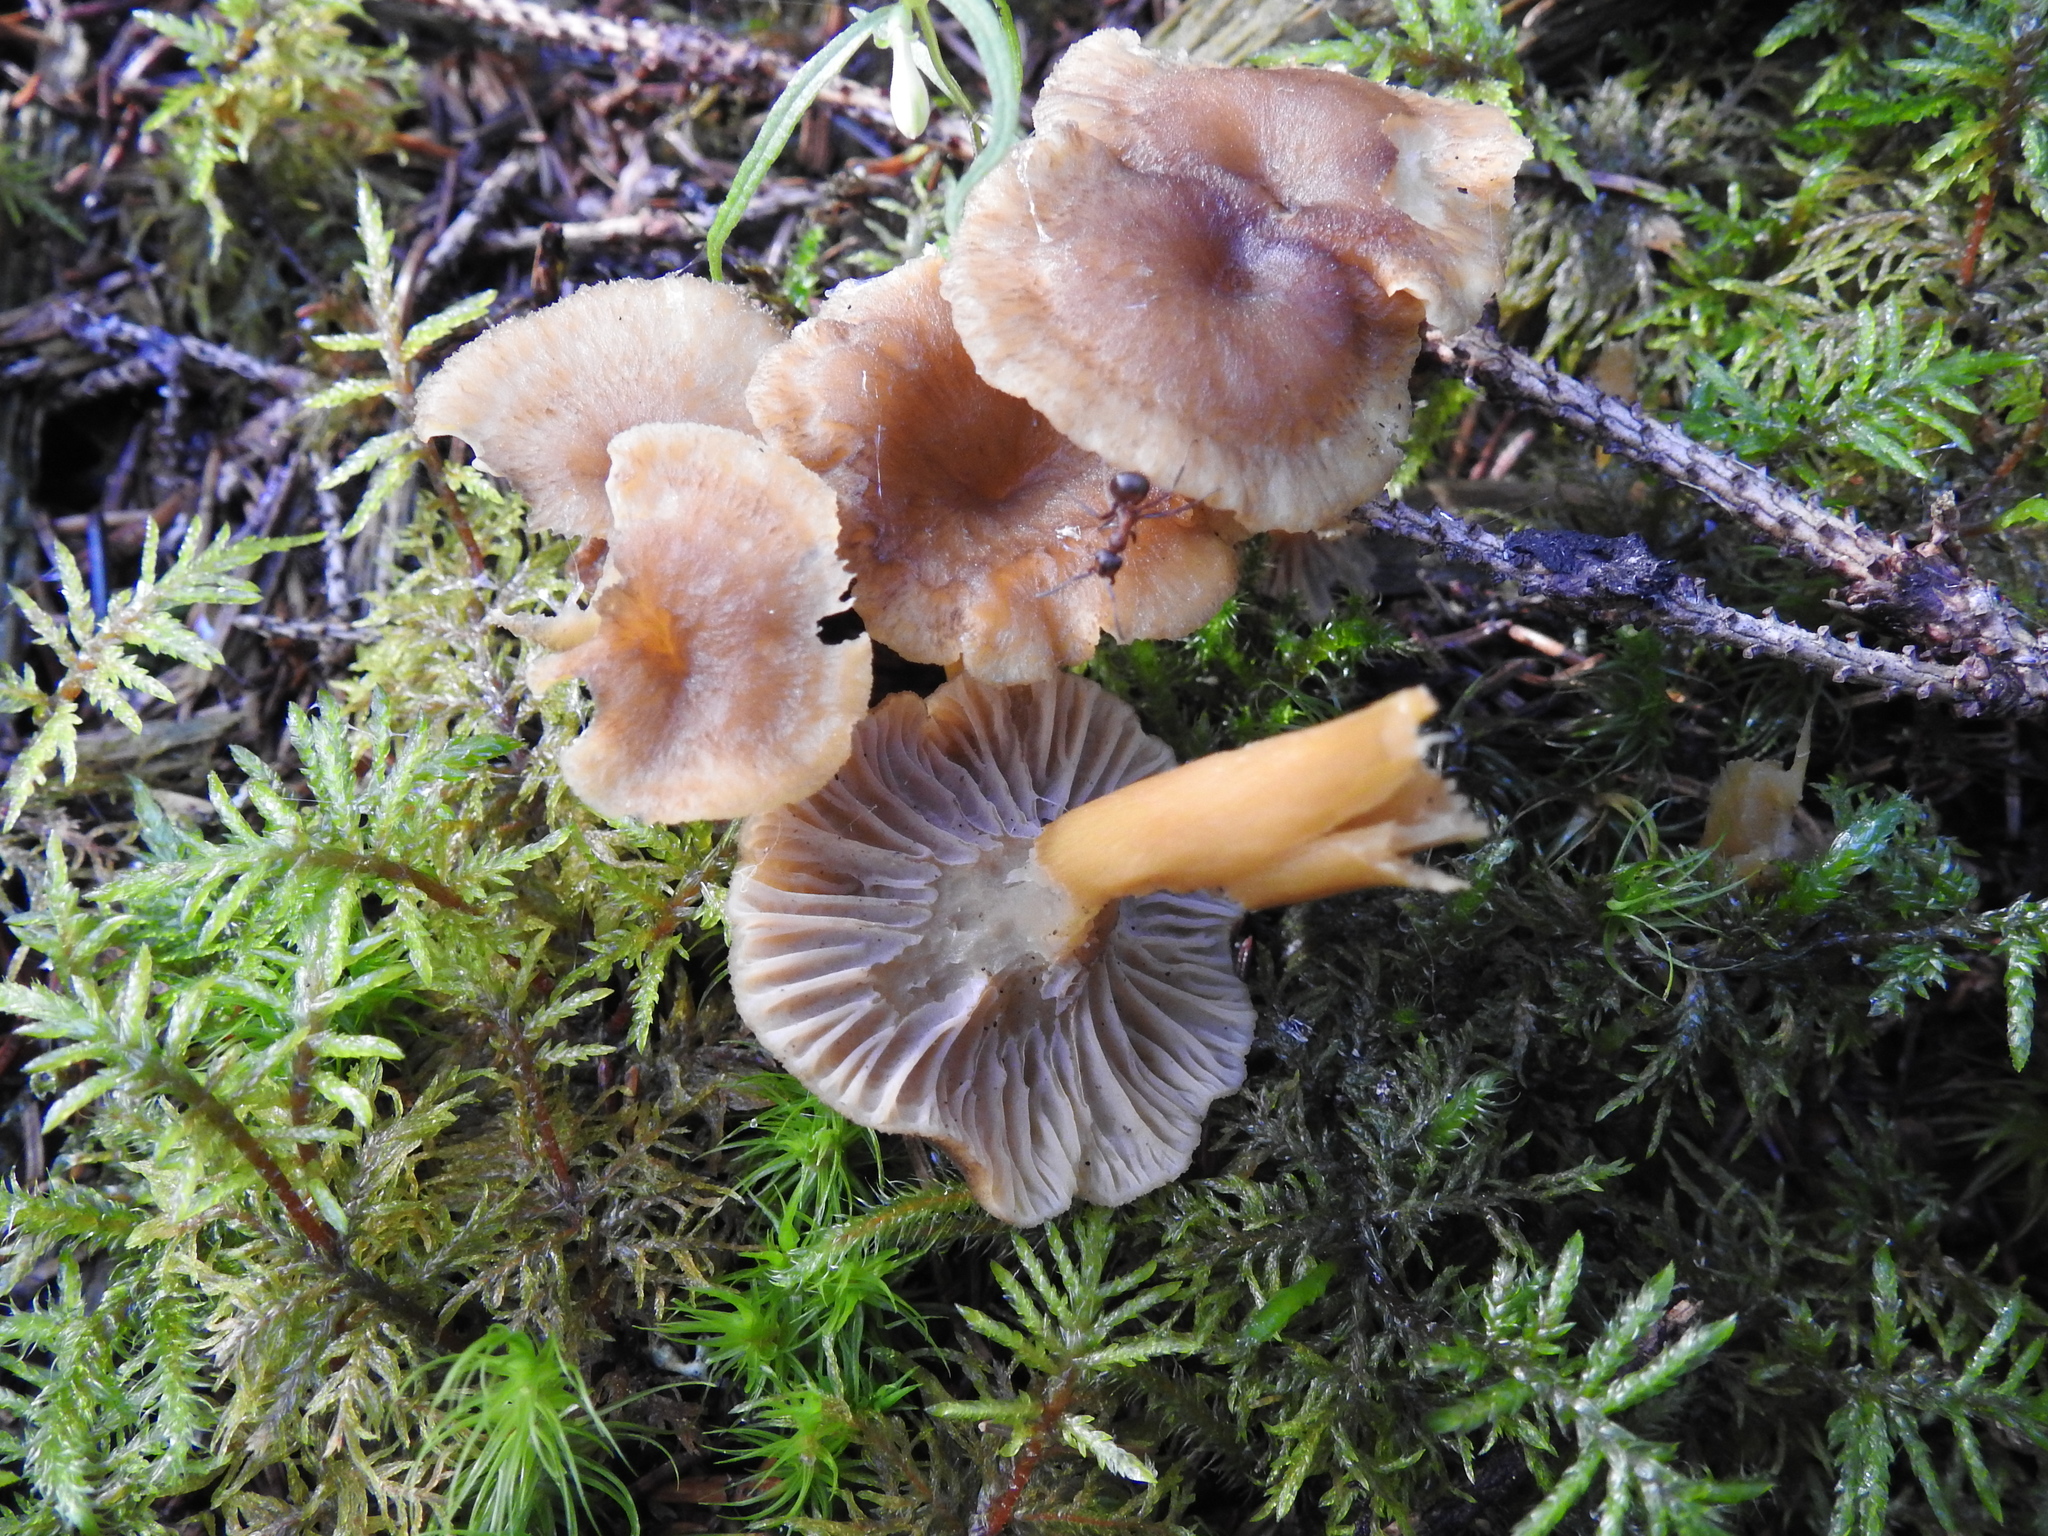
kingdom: Fungi
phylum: Basidiomycota
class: Agaricomycetes
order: Cantharellales
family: Hydnaceae
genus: Craterellus
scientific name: Craterellus tubaeformis
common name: Yellowfoot
